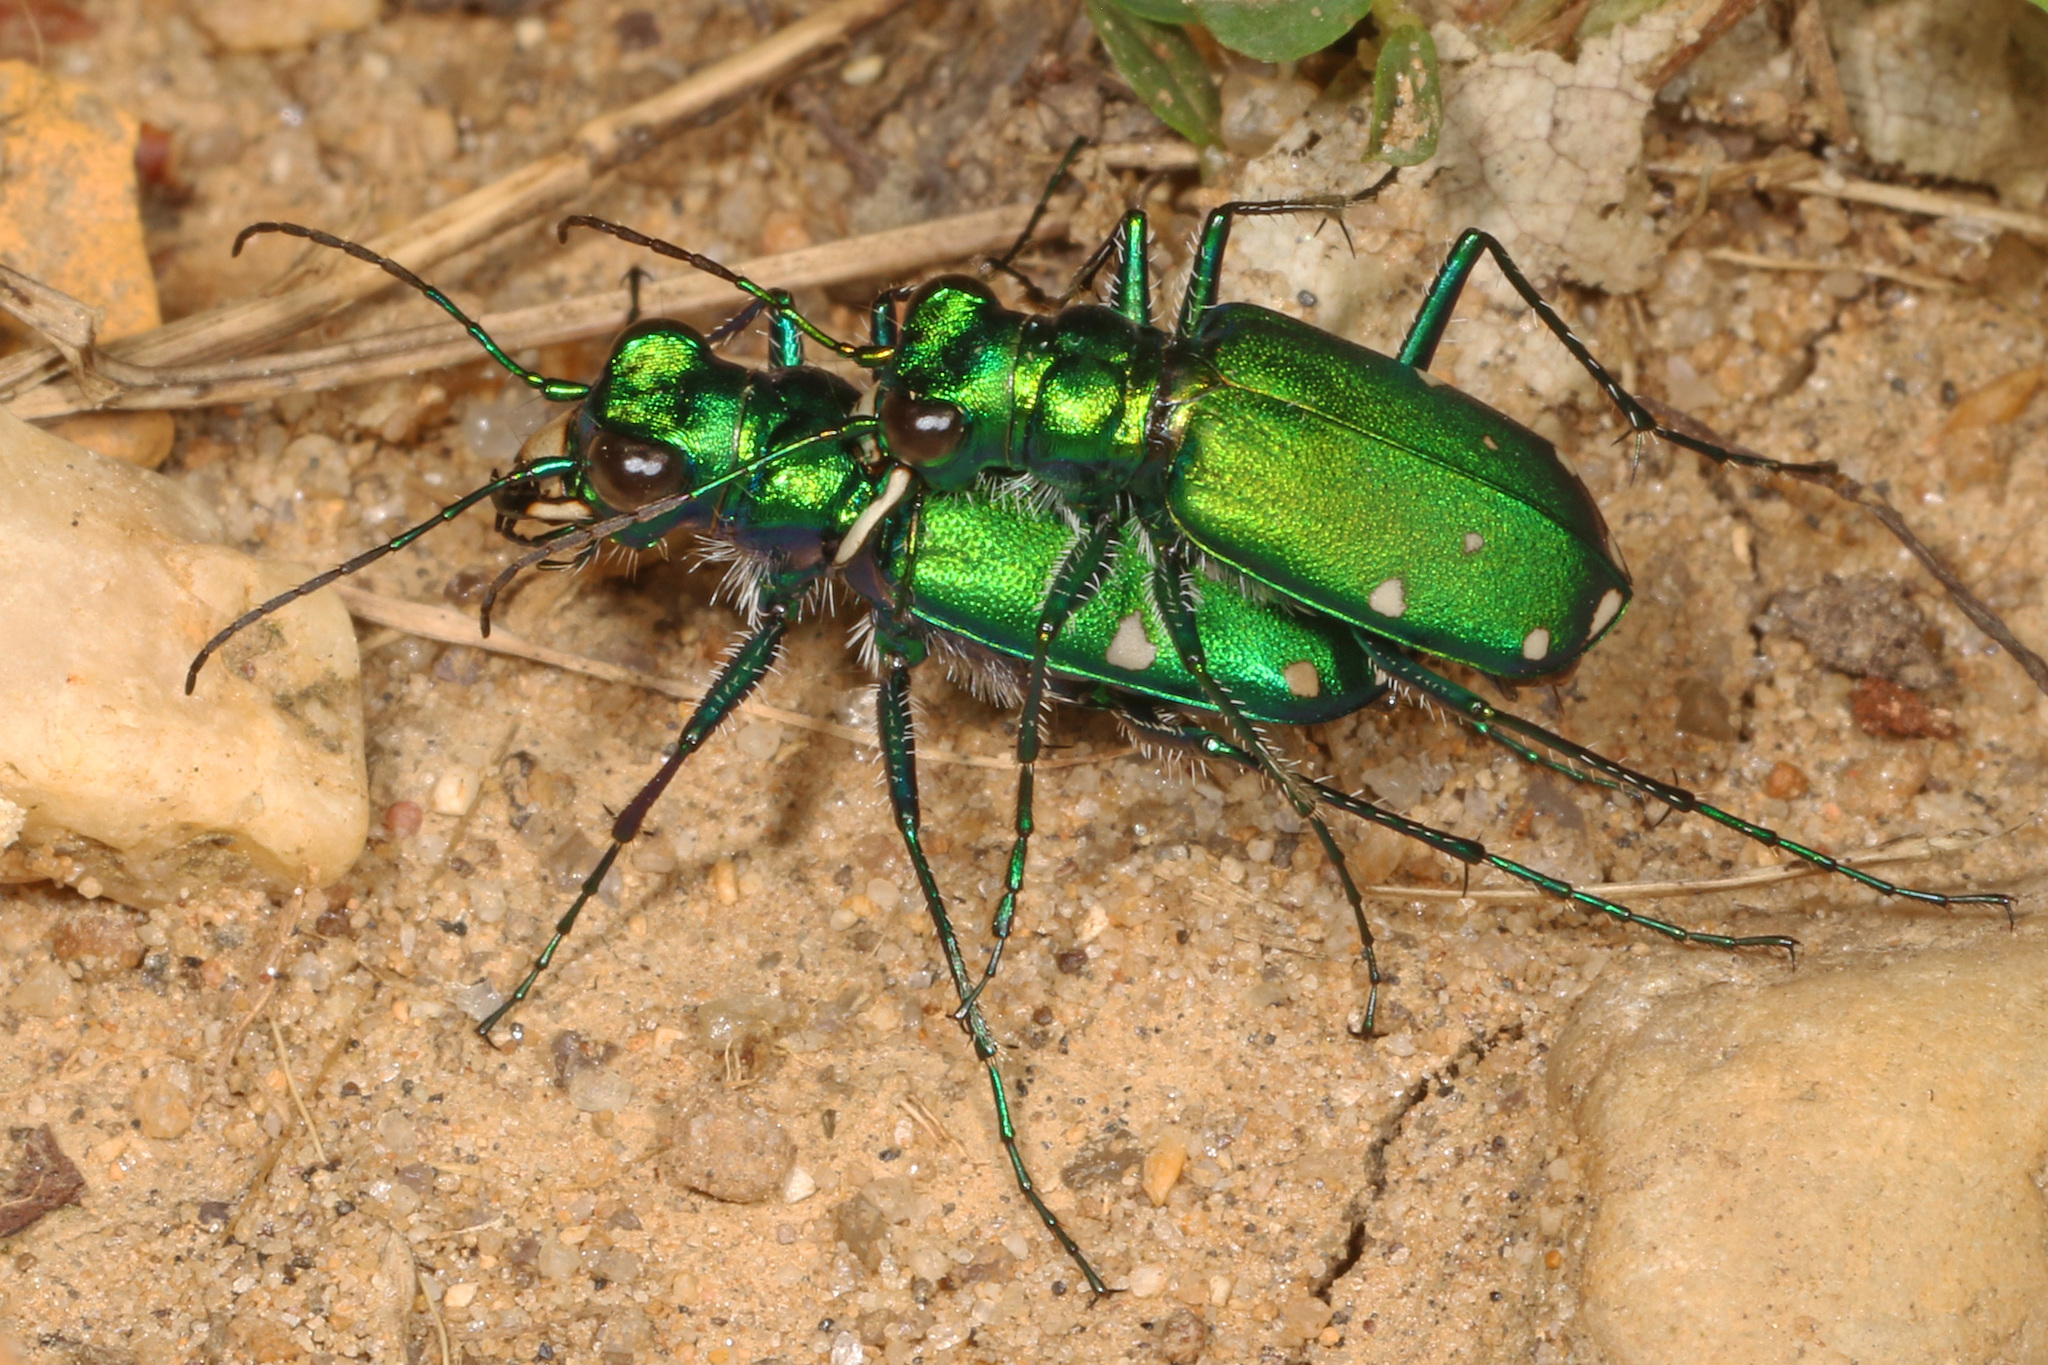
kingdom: Animalia
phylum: Arthropoda
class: Insecta
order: Coleoptera
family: Carabidae
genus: Cicindela
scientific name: Cicindela sexguttata
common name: Six-spotted tiger beetle
